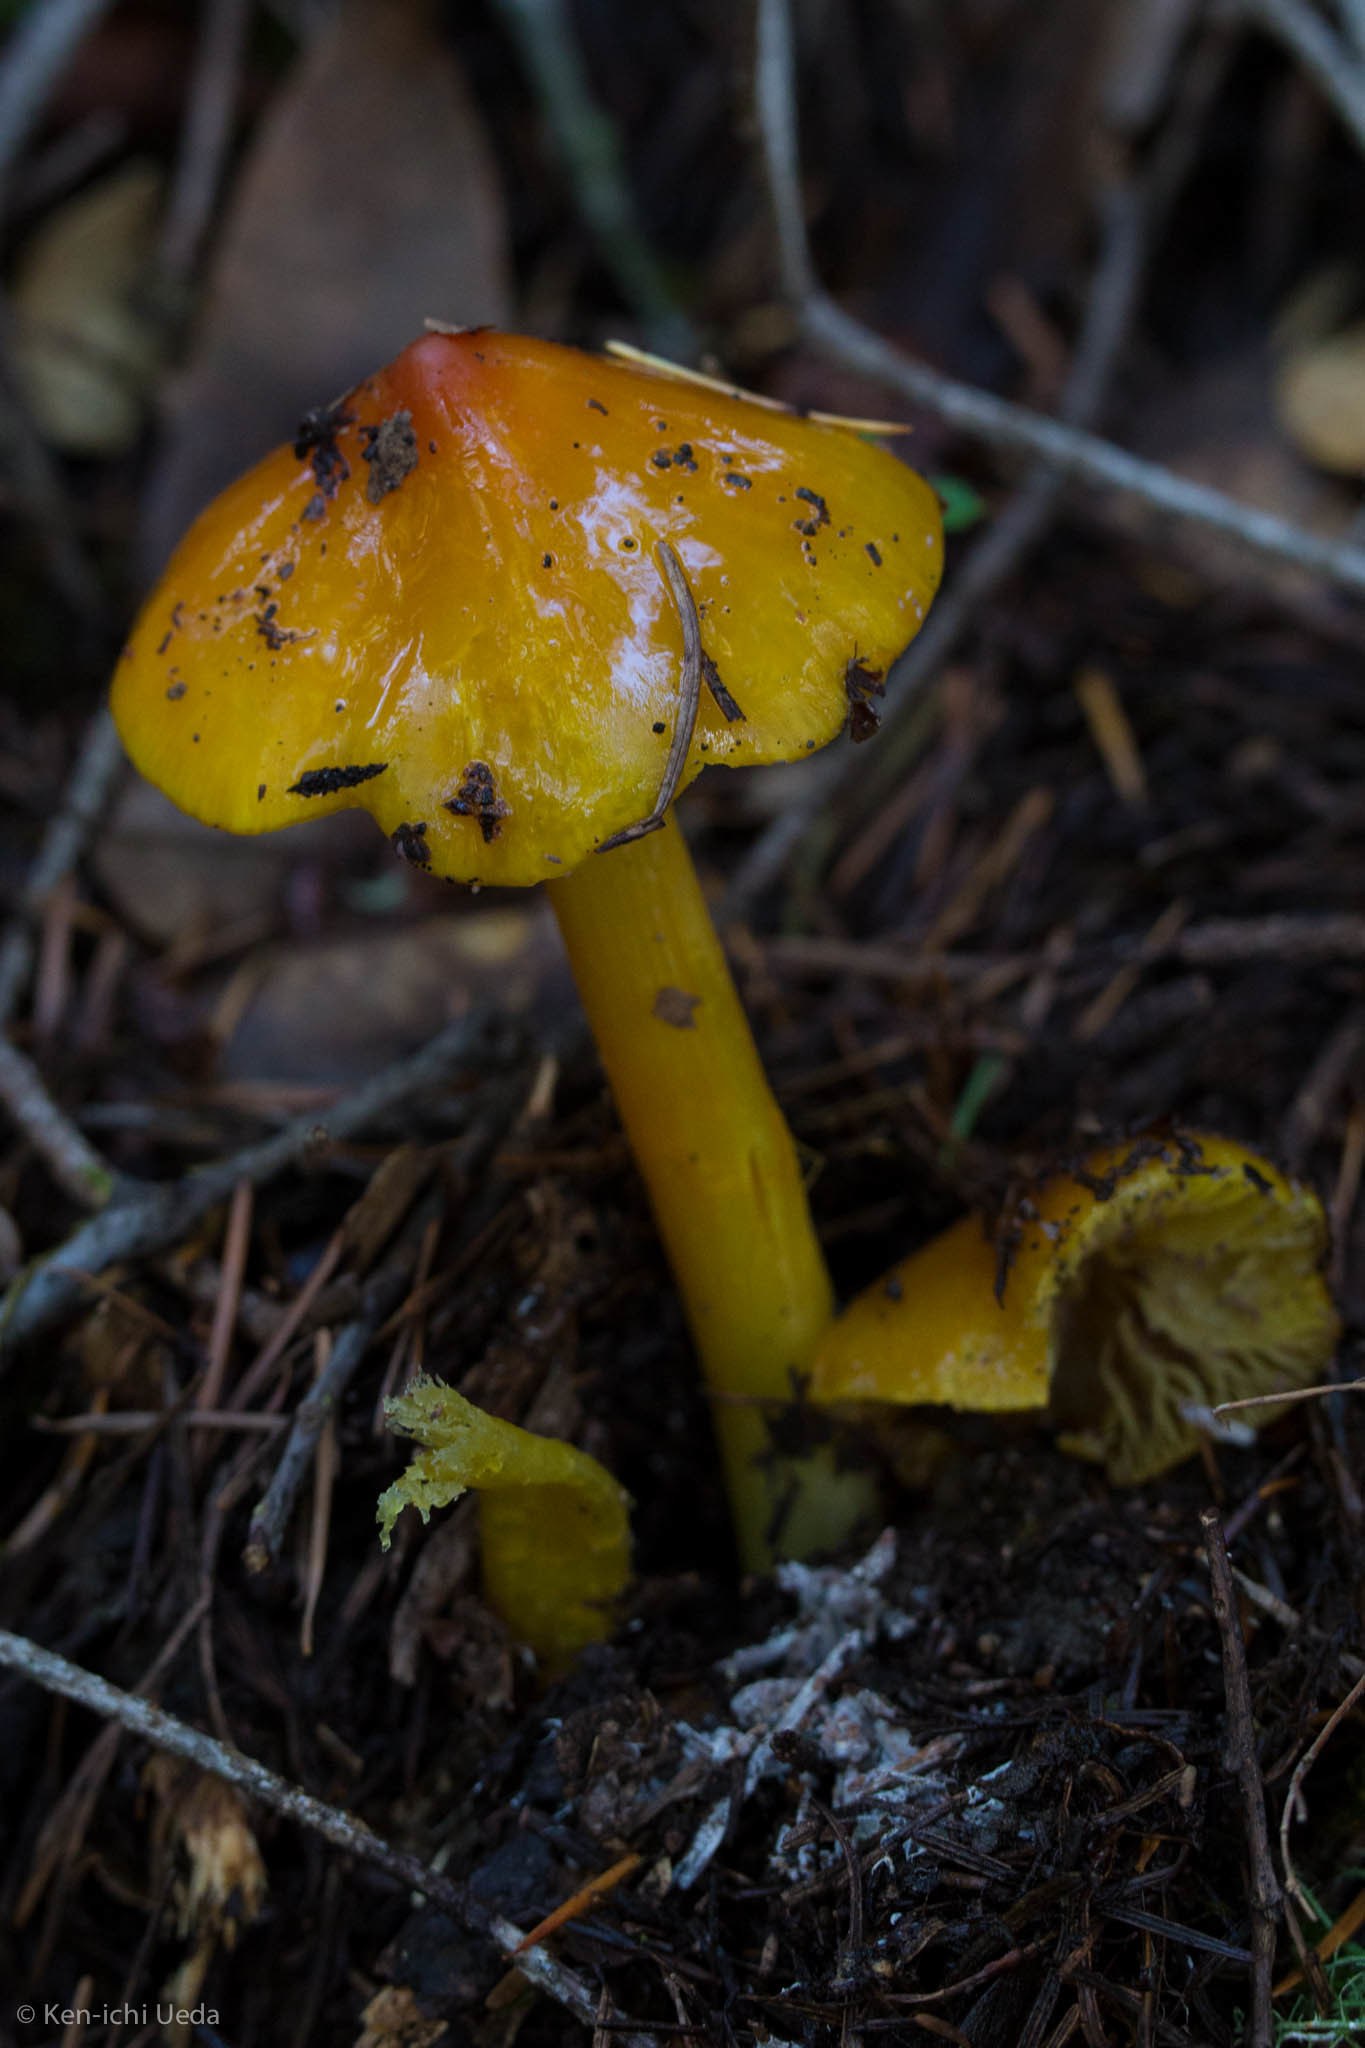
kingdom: Fungi
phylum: Basidiomycota
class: Agaricomycetes
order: Agaricales
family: Hygrophoraceae
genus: Hygrocybe
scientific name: Hygrocybe acutoconica
